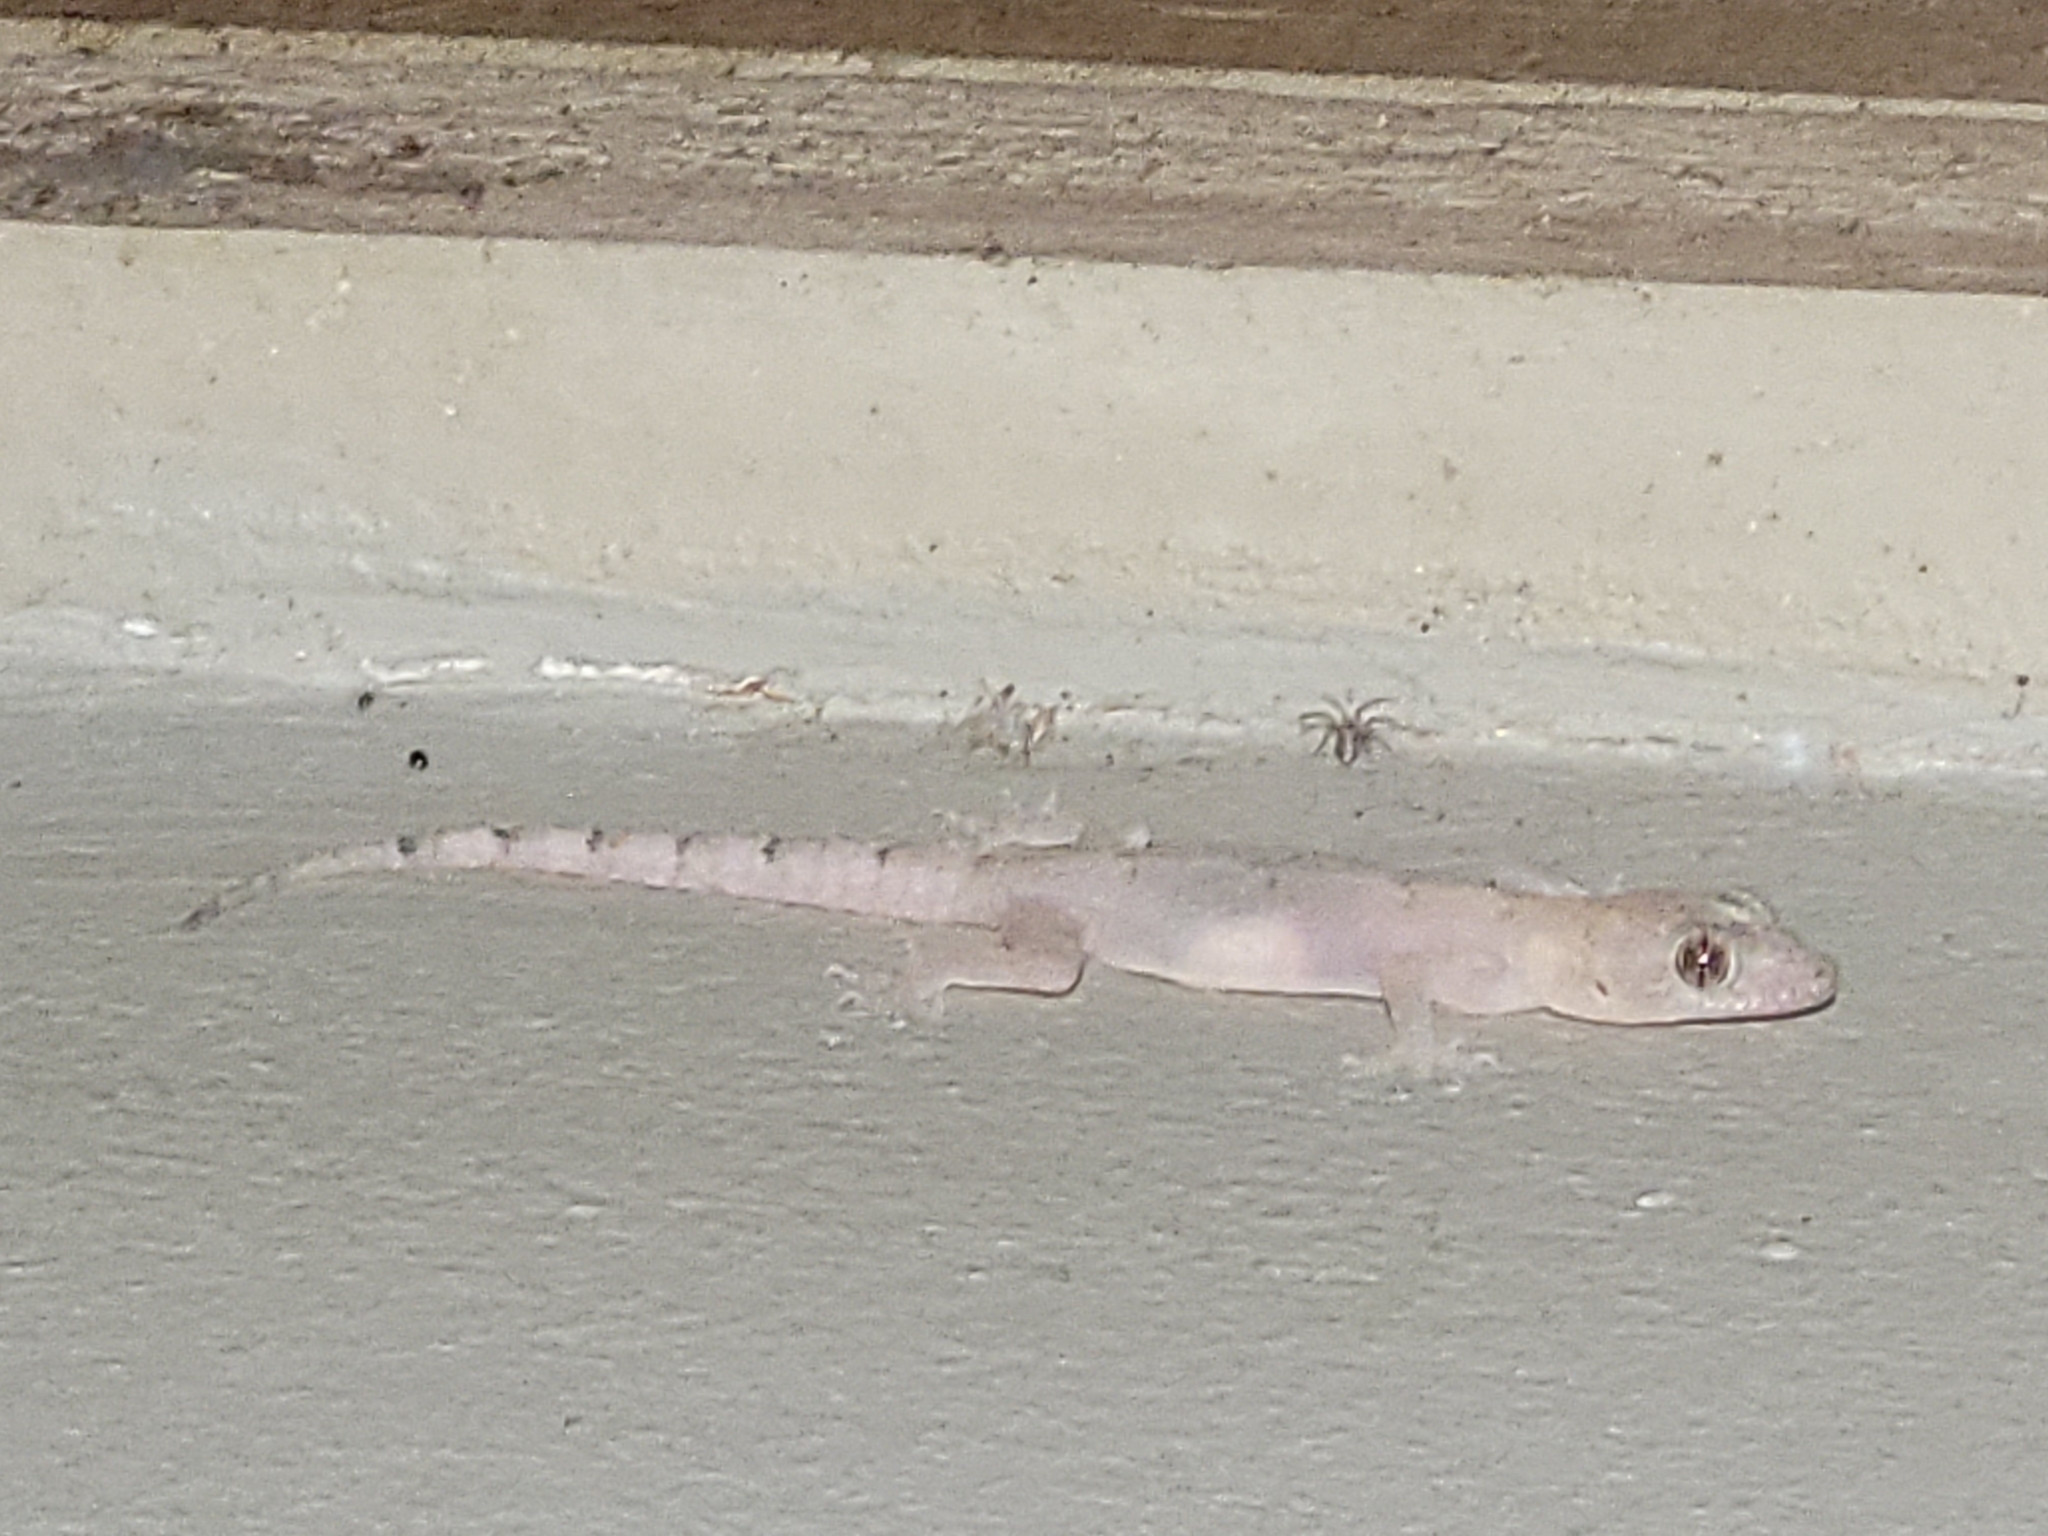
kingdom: Animalia
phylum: Chordata
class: Squamata
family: Gekkonidae
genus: Hemidactylus
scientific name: Hemidactylus mabouia
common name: House gecko
